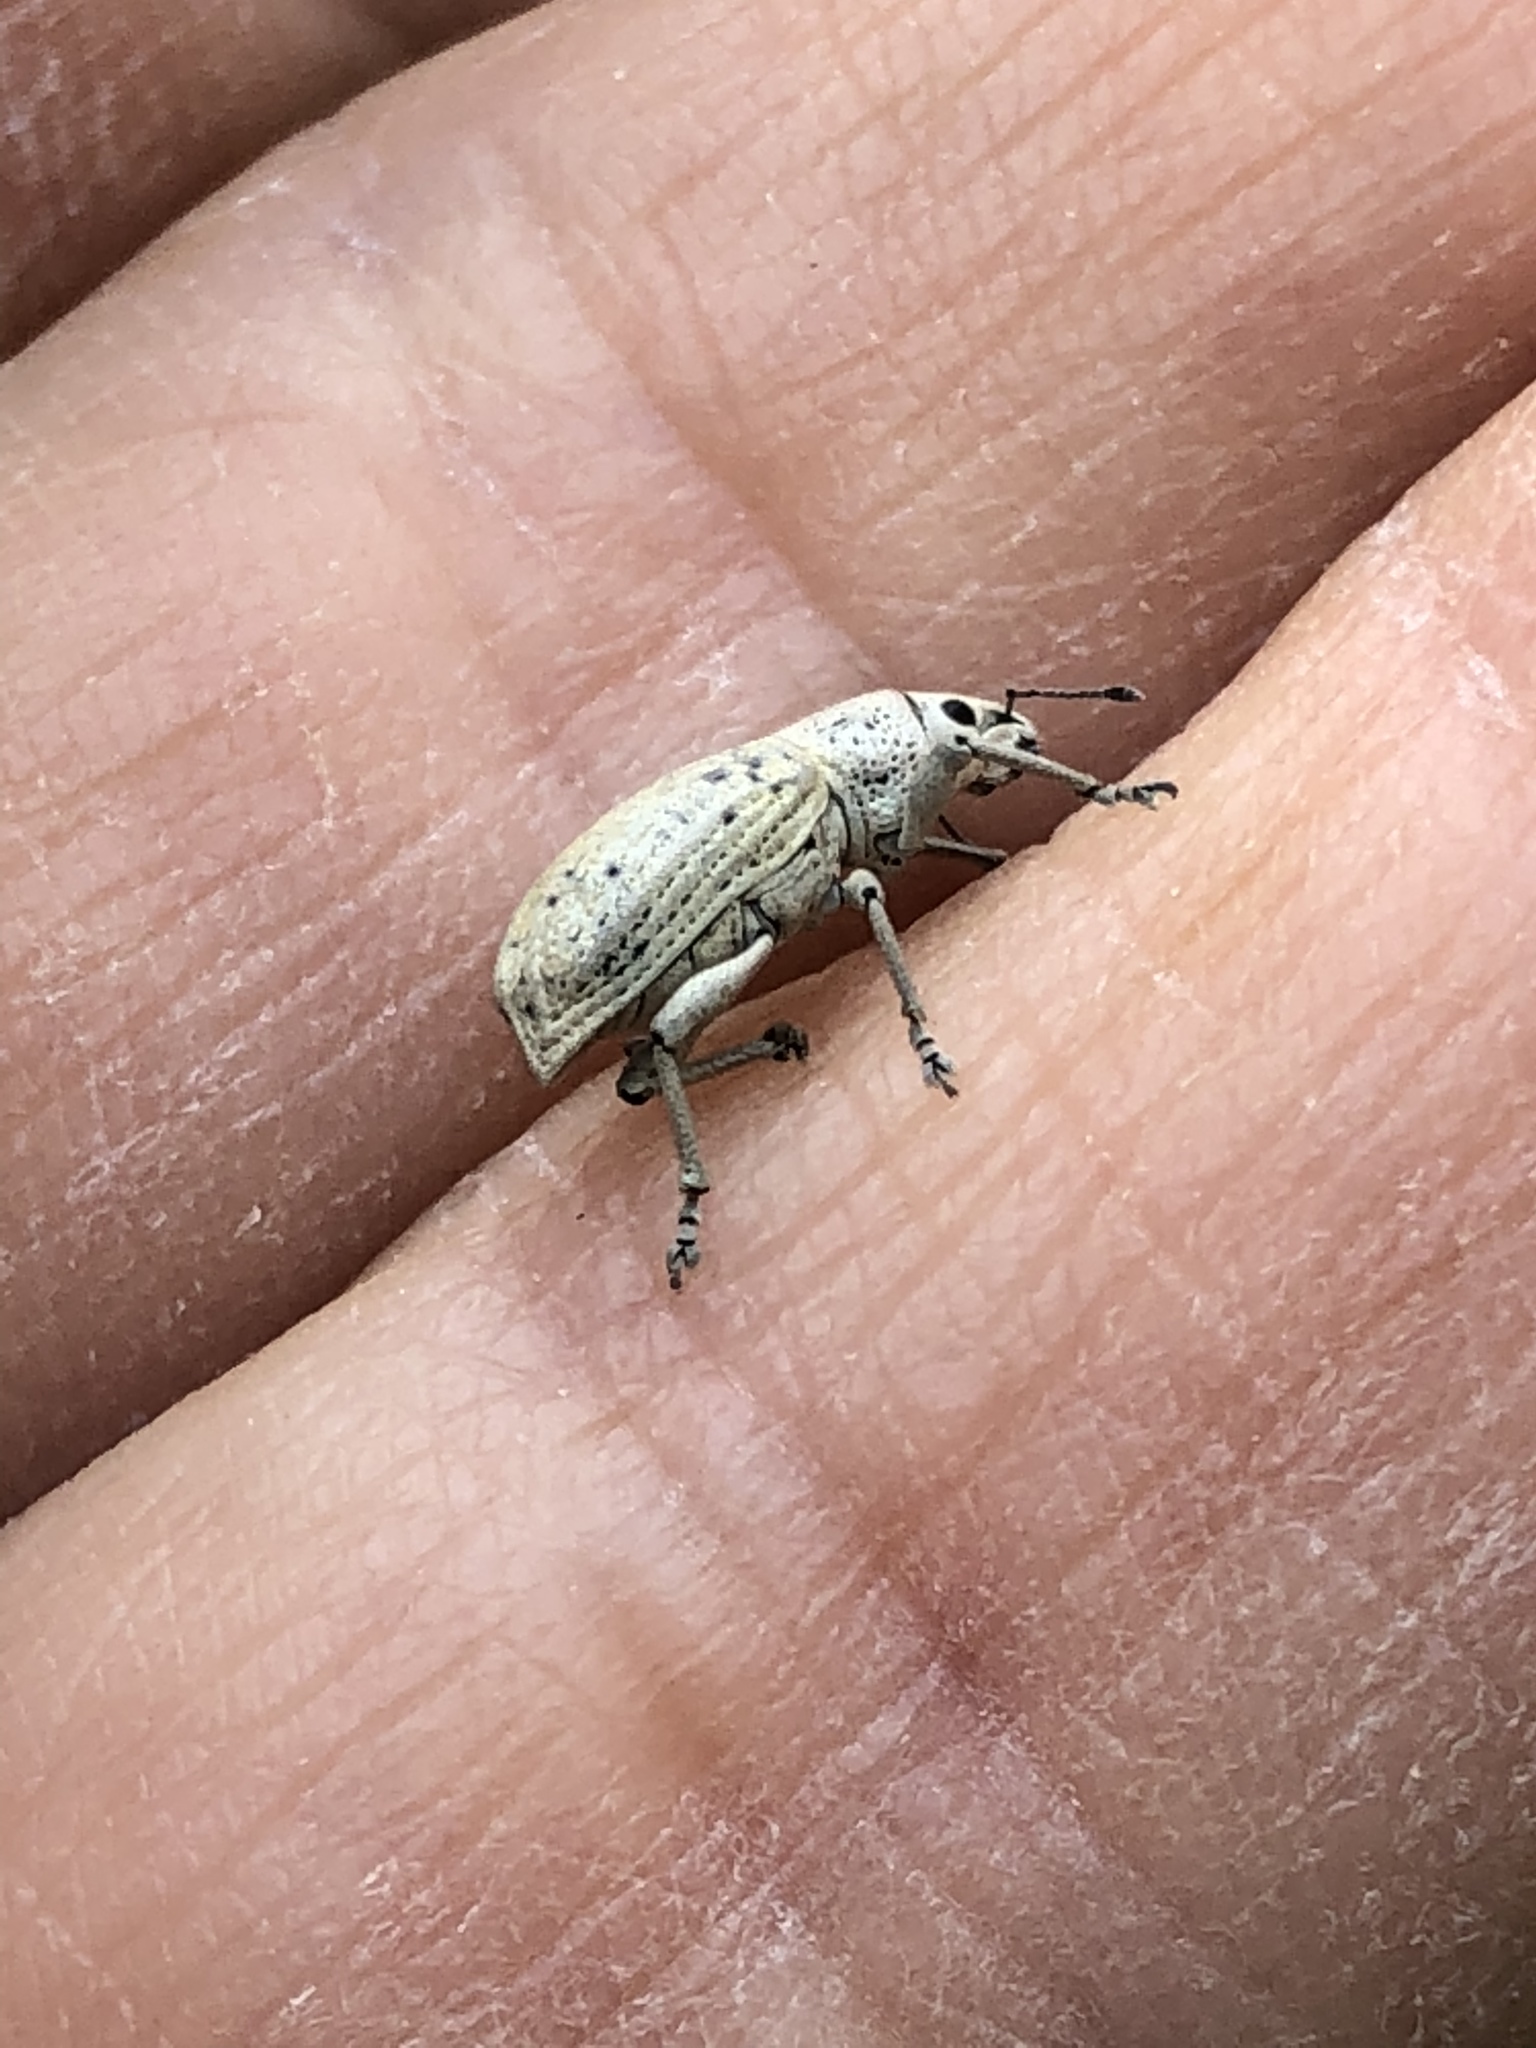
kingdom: Animalia
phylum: Arthropoda
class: Insecta
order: Coleoptera
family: Curculionidae
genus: Artipus
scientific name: Artipus floridanus
